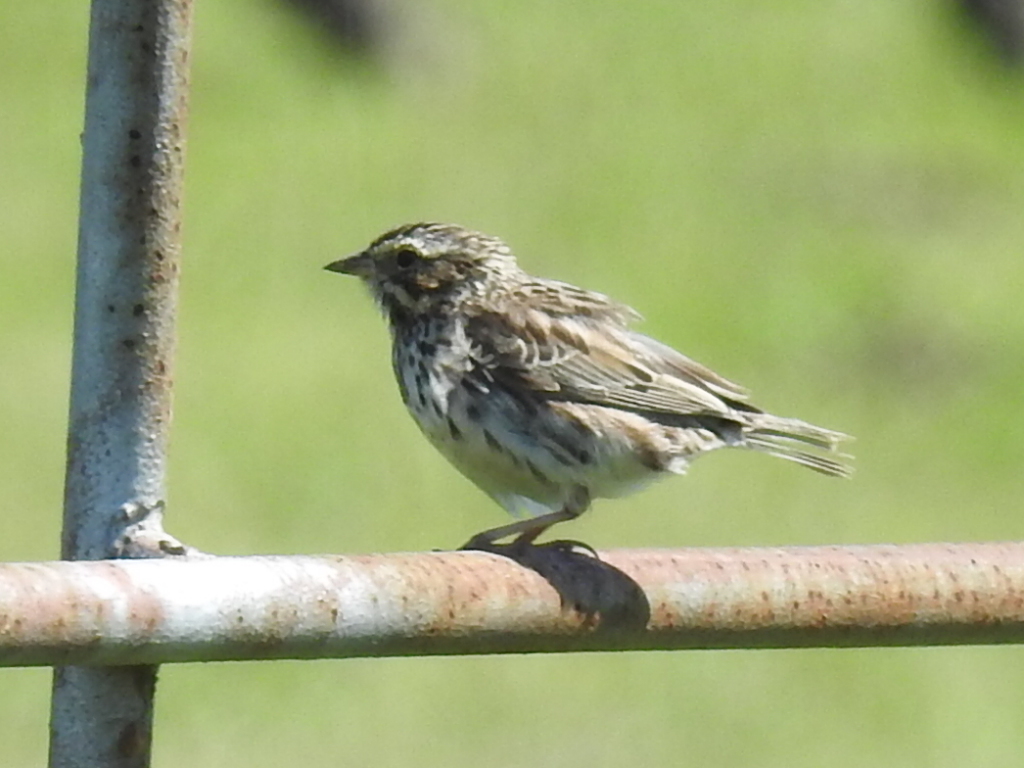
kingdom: Animalia
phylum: Chordata
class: Aves
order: Passeriformes
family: Passerellidae
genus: Passerculus
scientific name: Passerculus sandwichensis
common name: Savannah sparrow
